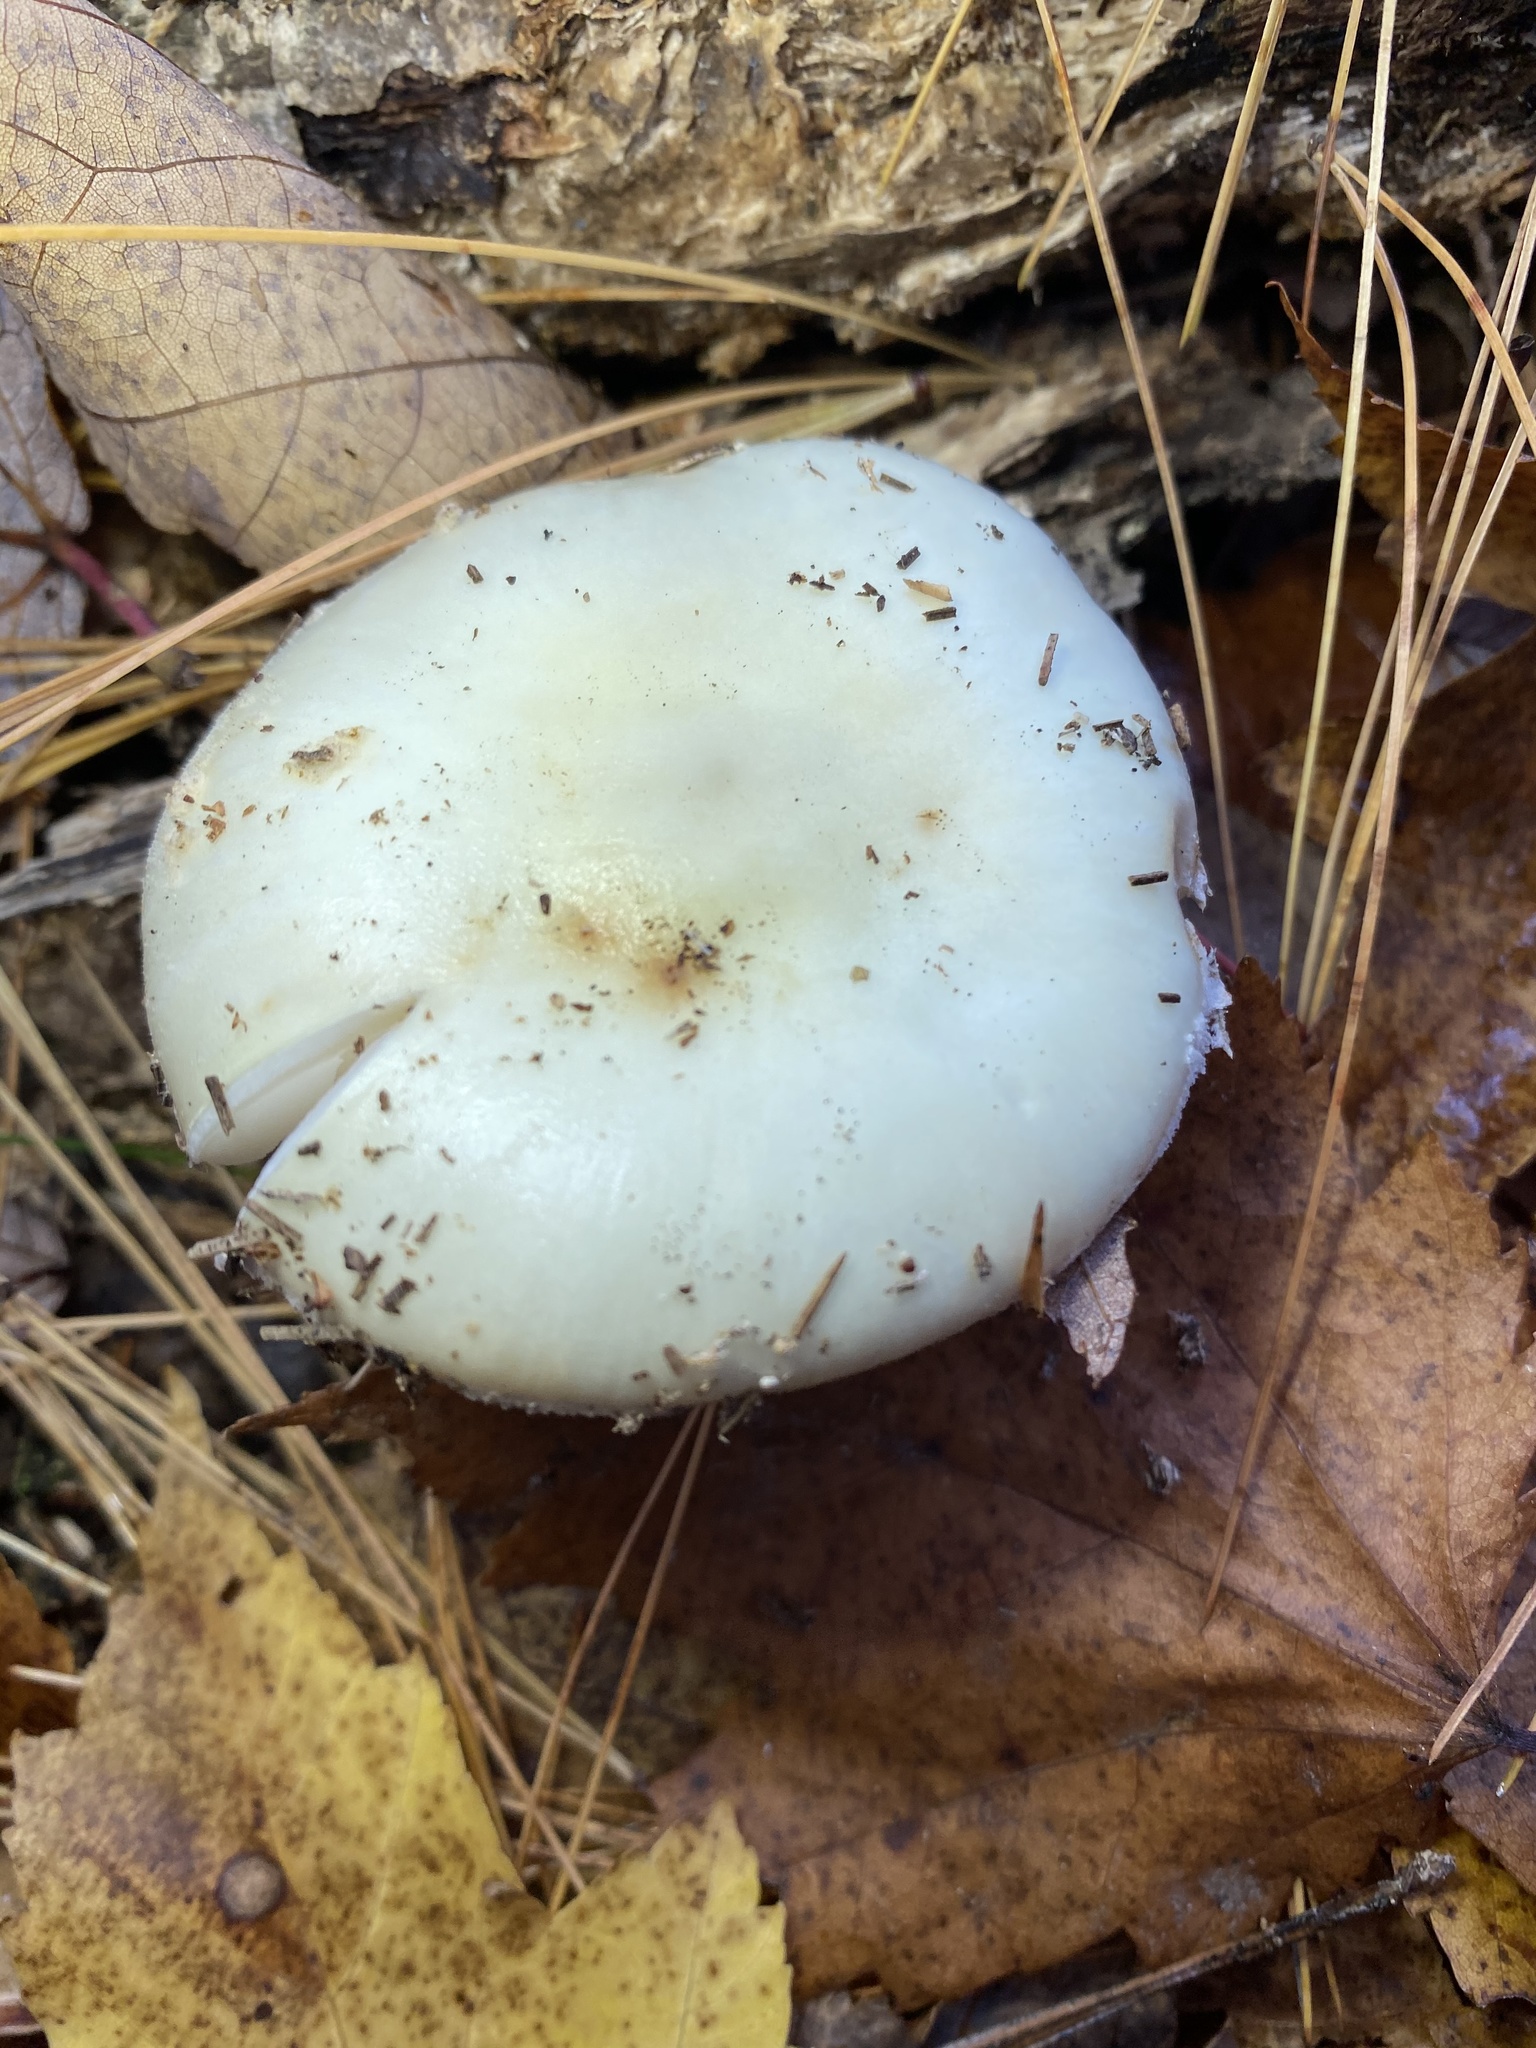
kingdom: Fungi
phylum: Basidiomycota
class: Agaricomycetes
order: Agaricales
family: Amanitaceae
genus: Amanita
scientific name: Amanita citrina
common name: False death-cap
